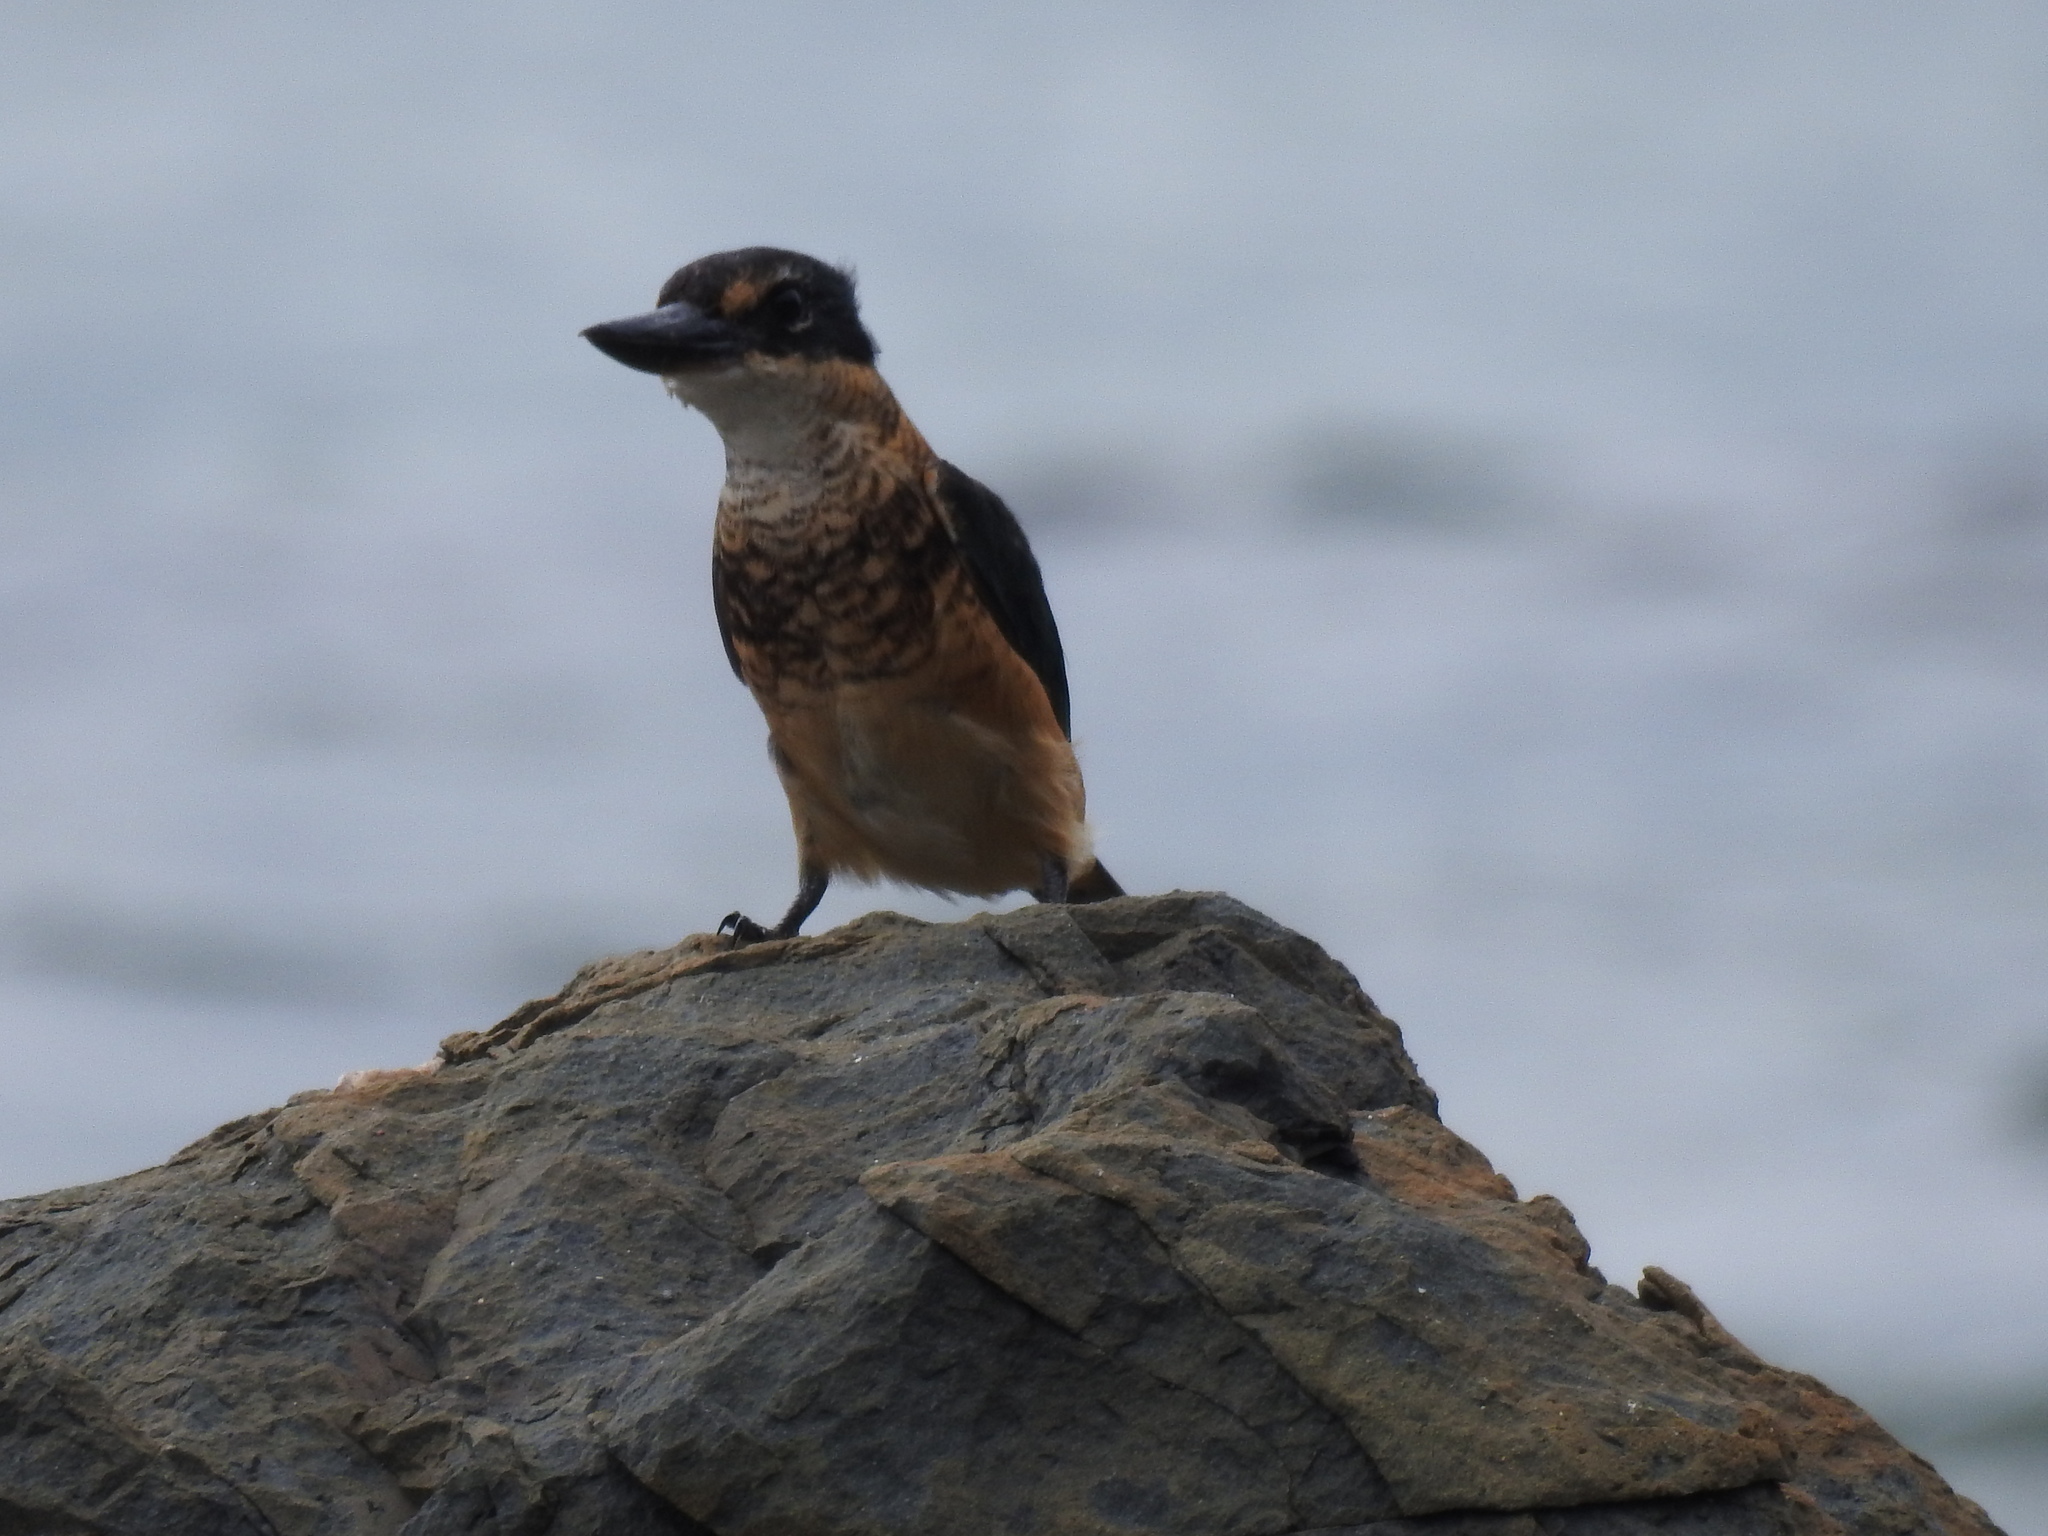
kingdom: Animalia
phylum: Chordata
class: Aves
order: Coraciiformes
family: Alcedinidae
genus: Todiramphus
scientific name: Todiramphus sanctus
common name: Sacred kingfisher
